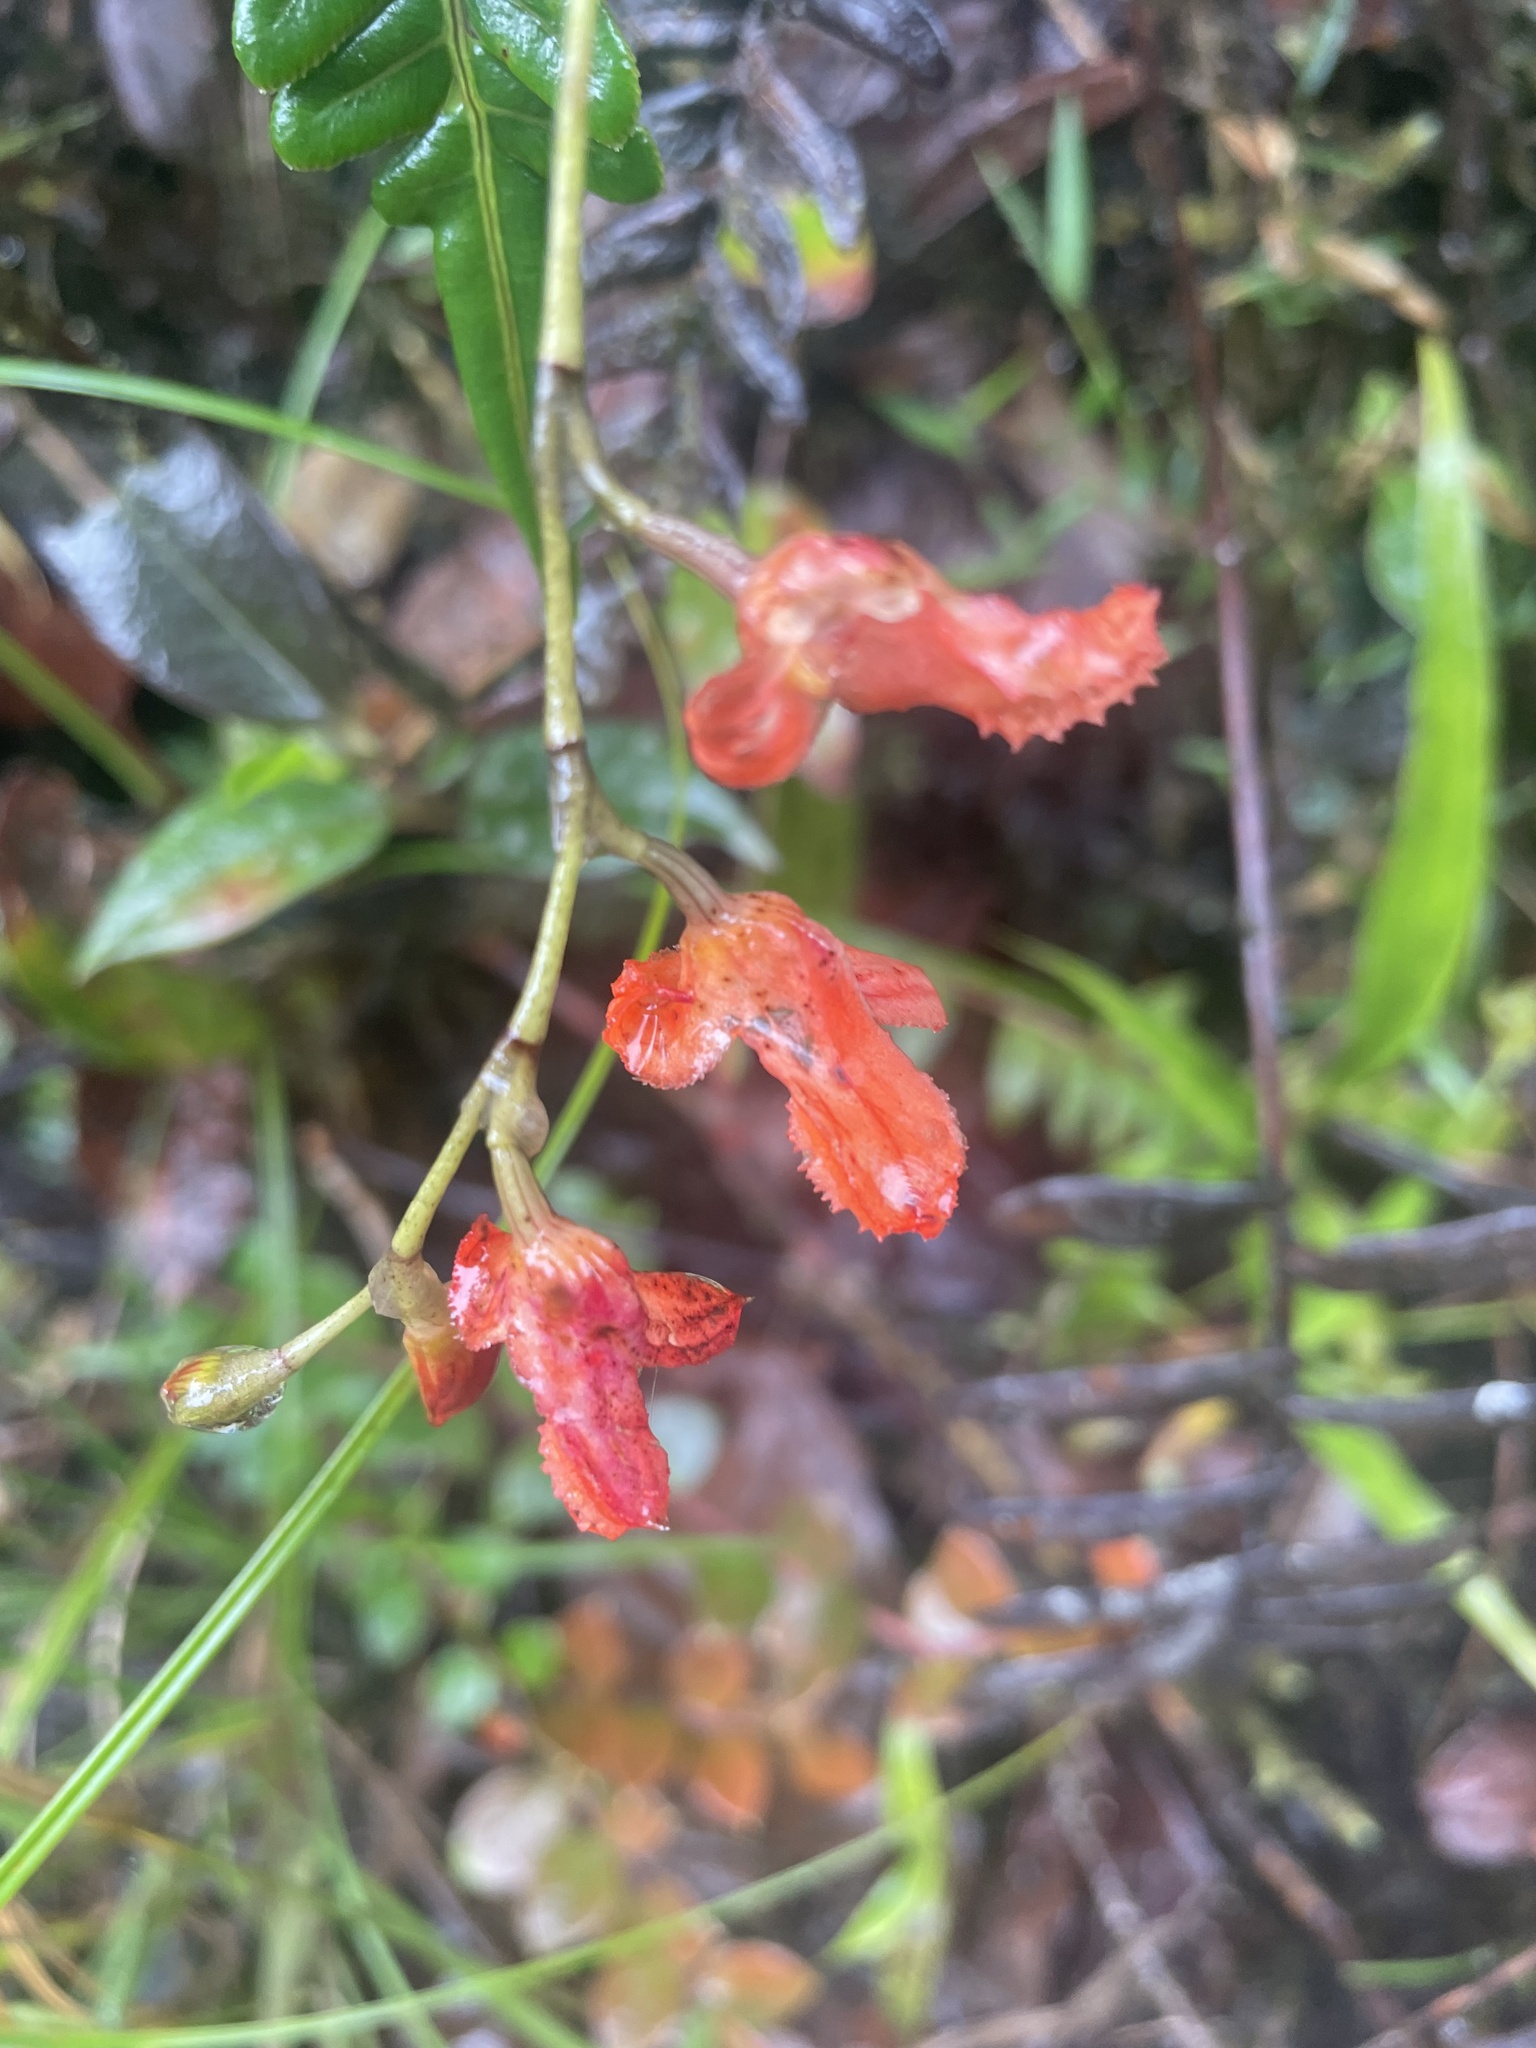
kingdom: Plantae
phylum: Tracheophyta
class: Liliopsida
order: Asparagales
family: Orchidaceae
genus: Porroglossum
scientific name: Porroglossum eduardi
